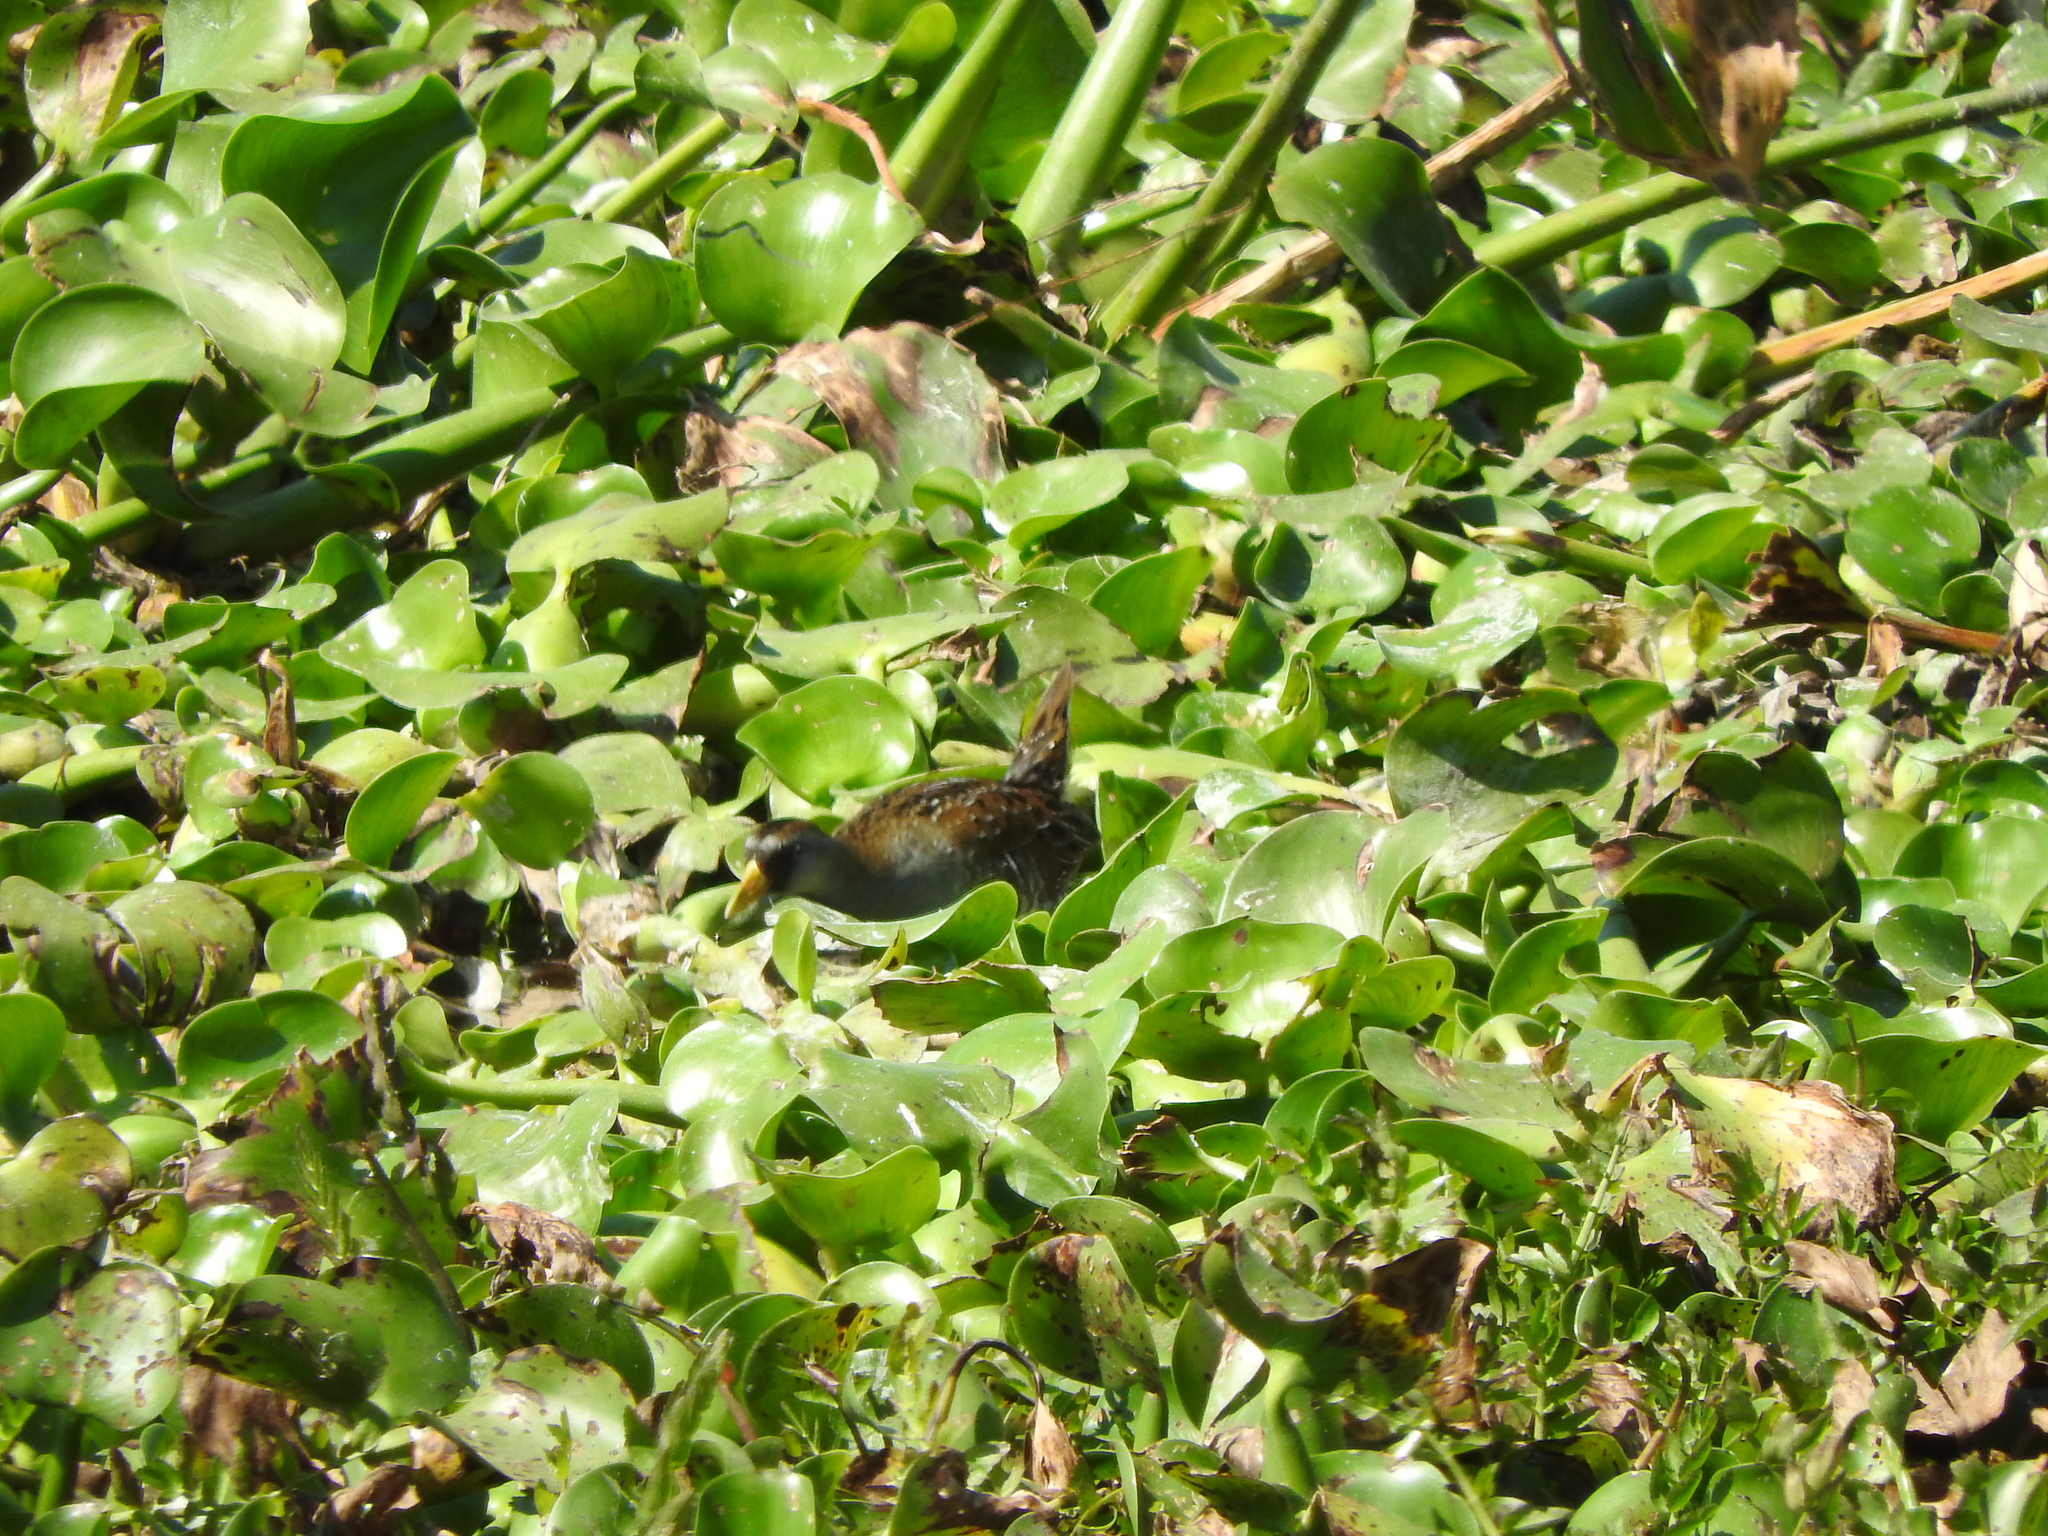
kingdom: Animalia
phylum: Chordata
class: Aves
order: Gruiformes
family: Rallidae
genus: Porzana
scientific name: Porzana carolina
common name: Sora
